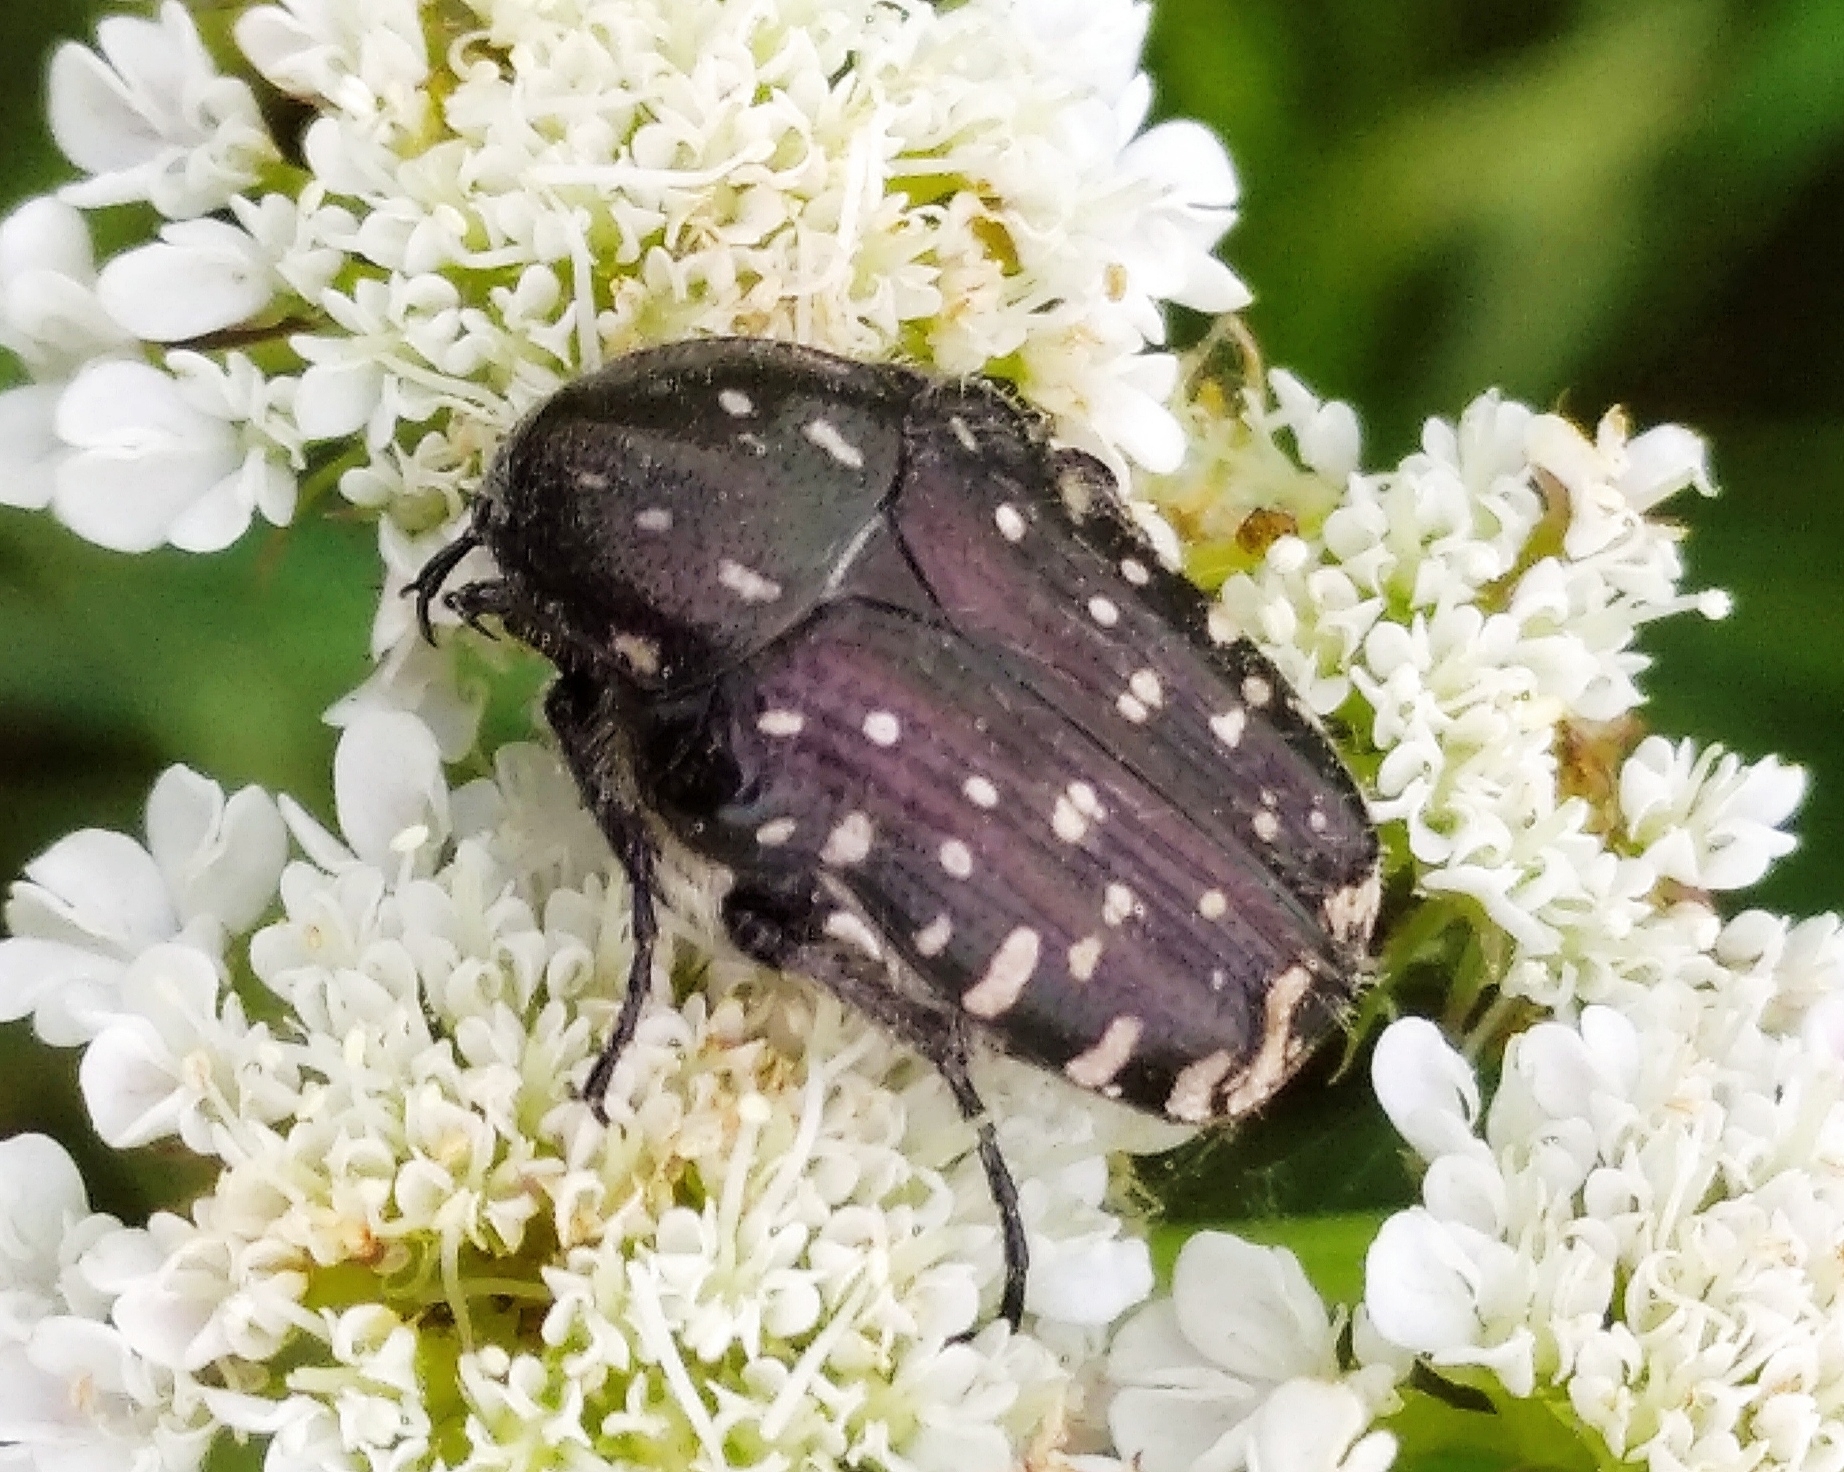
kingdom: Animalia
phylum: Arthropoda
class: Insecta
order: Coleoptera
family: Scarabaeidae
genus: Oxythyrea
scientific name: Oxythyrea funesta
